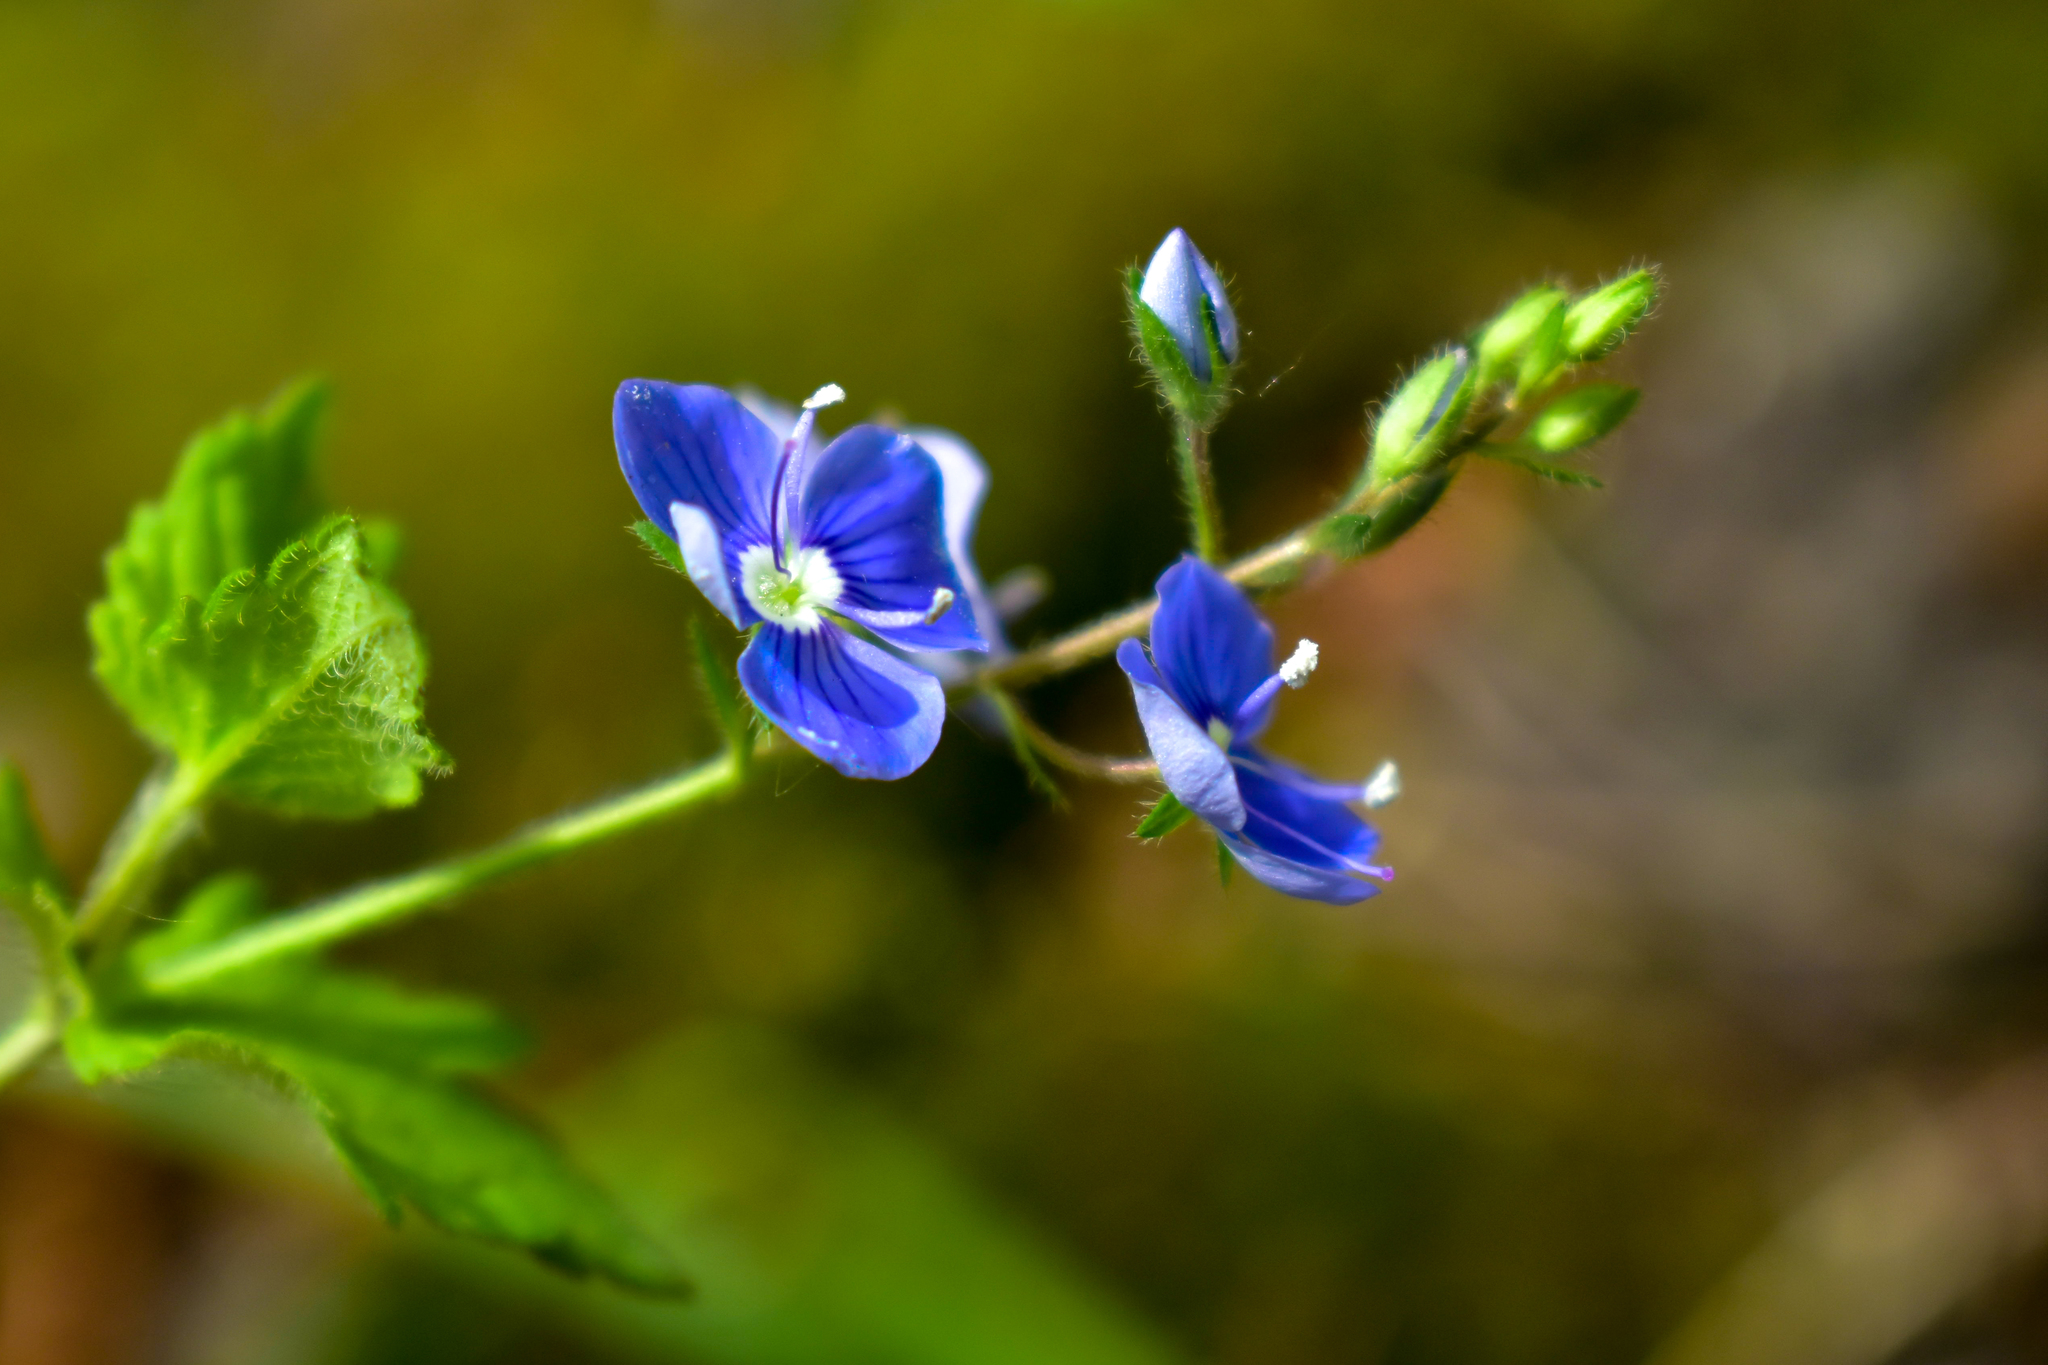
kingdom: Plantae
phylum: Tracheophyta
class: Magnoliopsida
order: Lamiales
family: Plantaginaceae
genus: Veronica
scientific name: Veronica chamaedrys
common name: Germander speedwell
